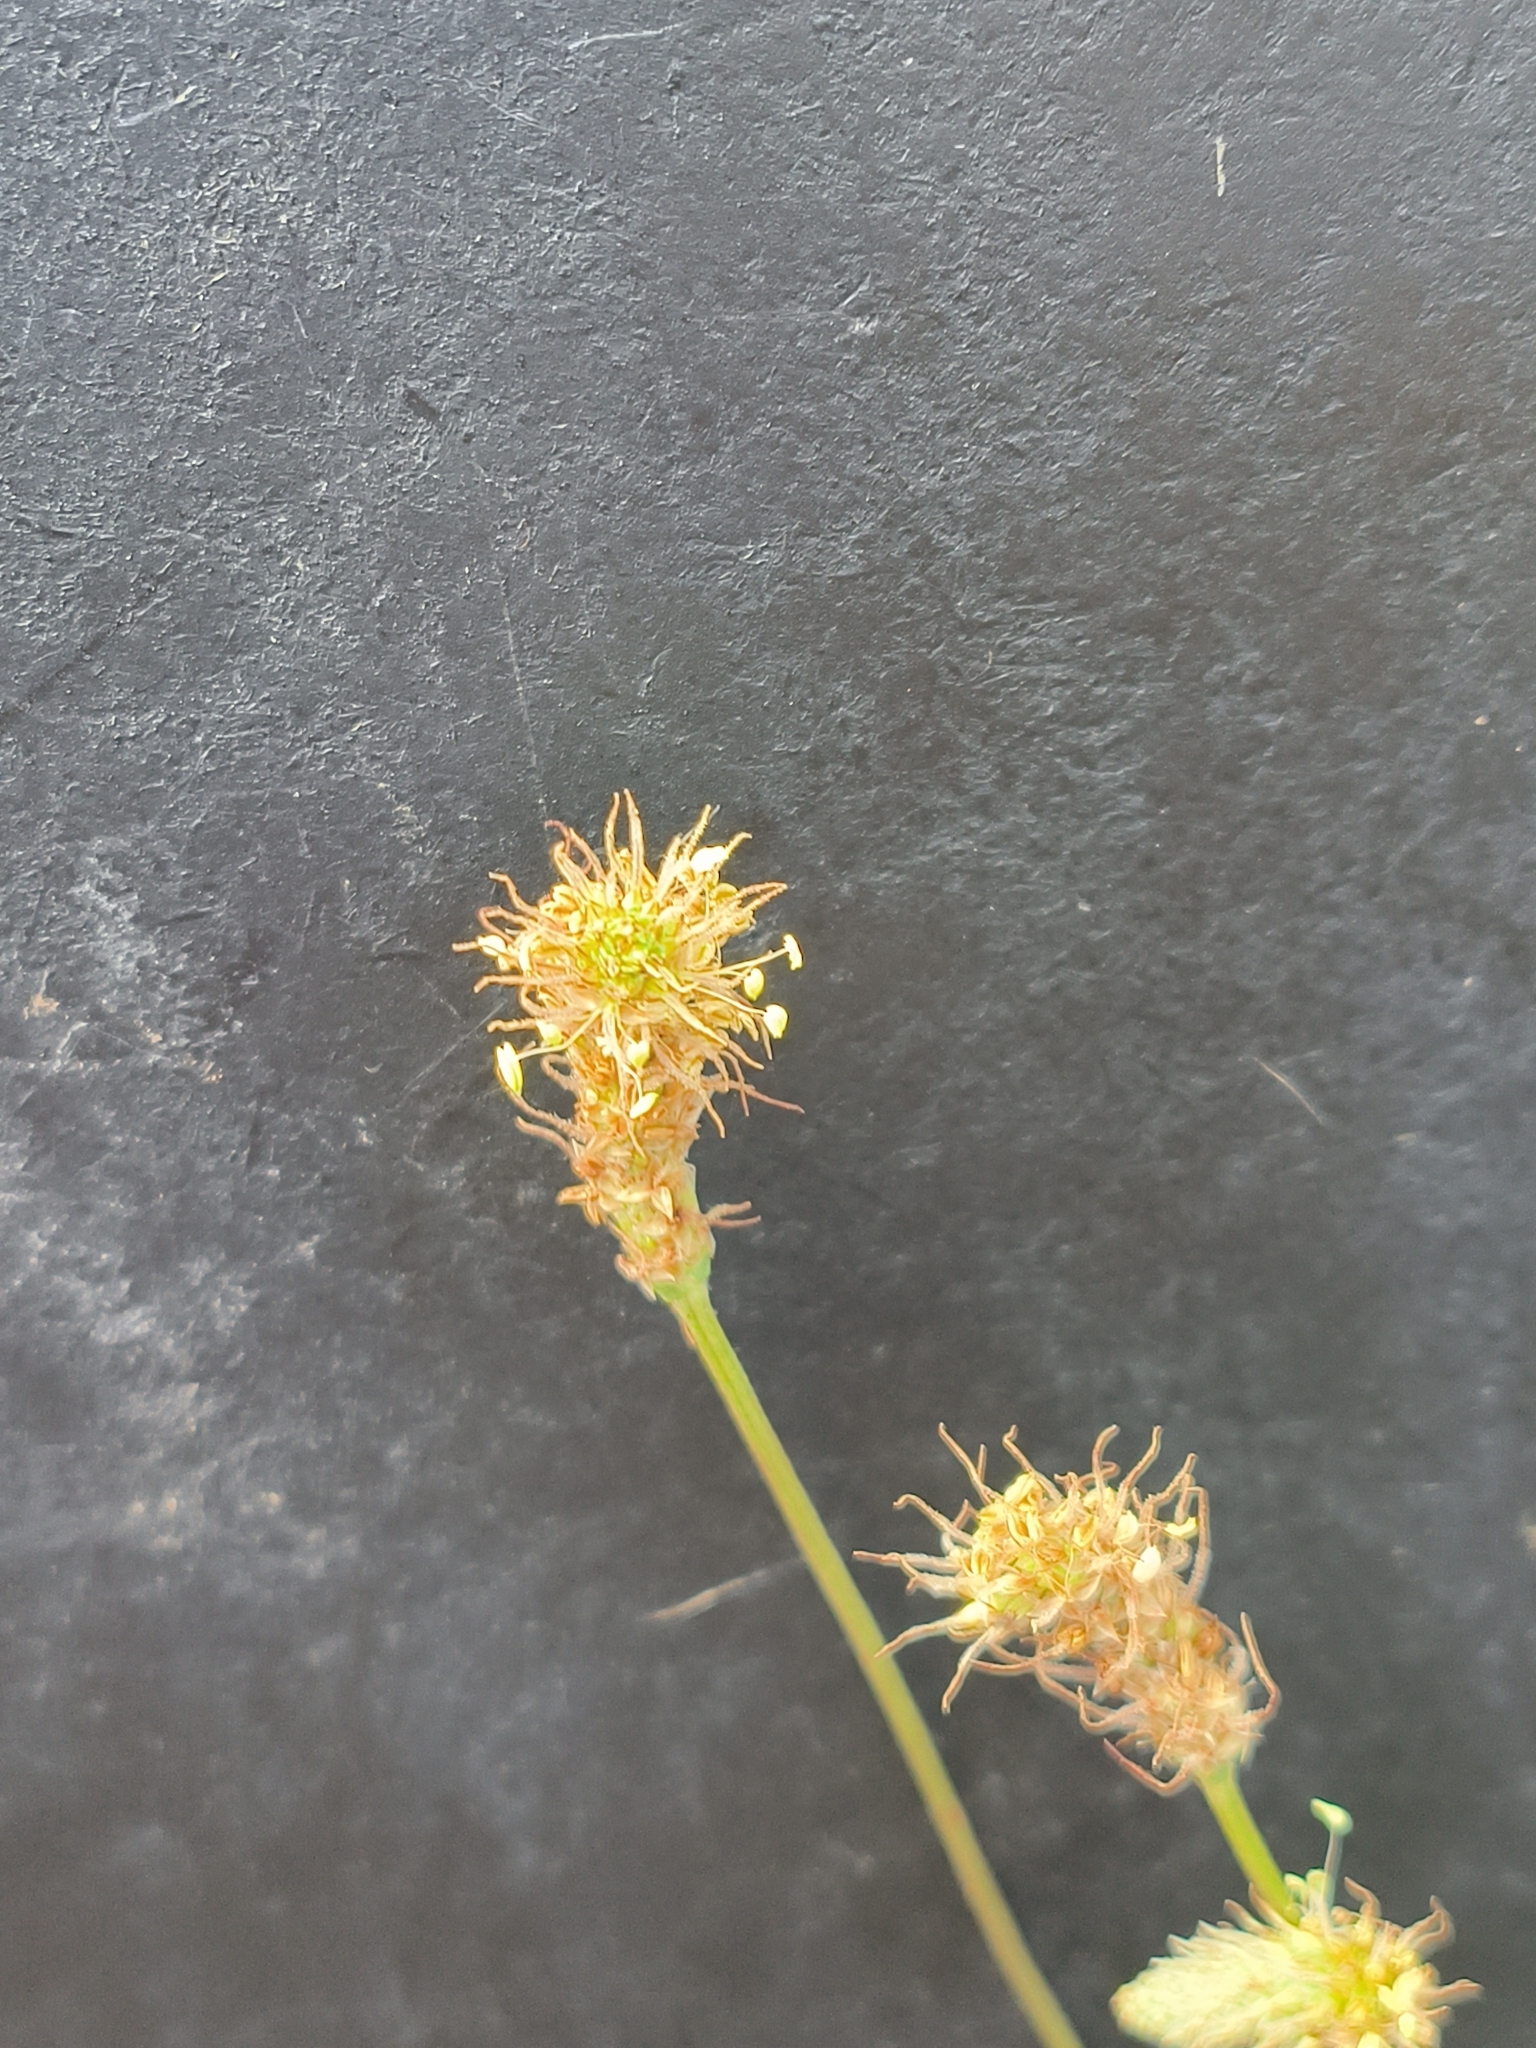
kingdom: Plantae
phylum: Tracheophyta
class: Magnoliopsida
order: Lamiales
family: Plantaginaceae
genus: Plantago
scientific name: Plantago lanceolata
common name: Ribwort plantain
